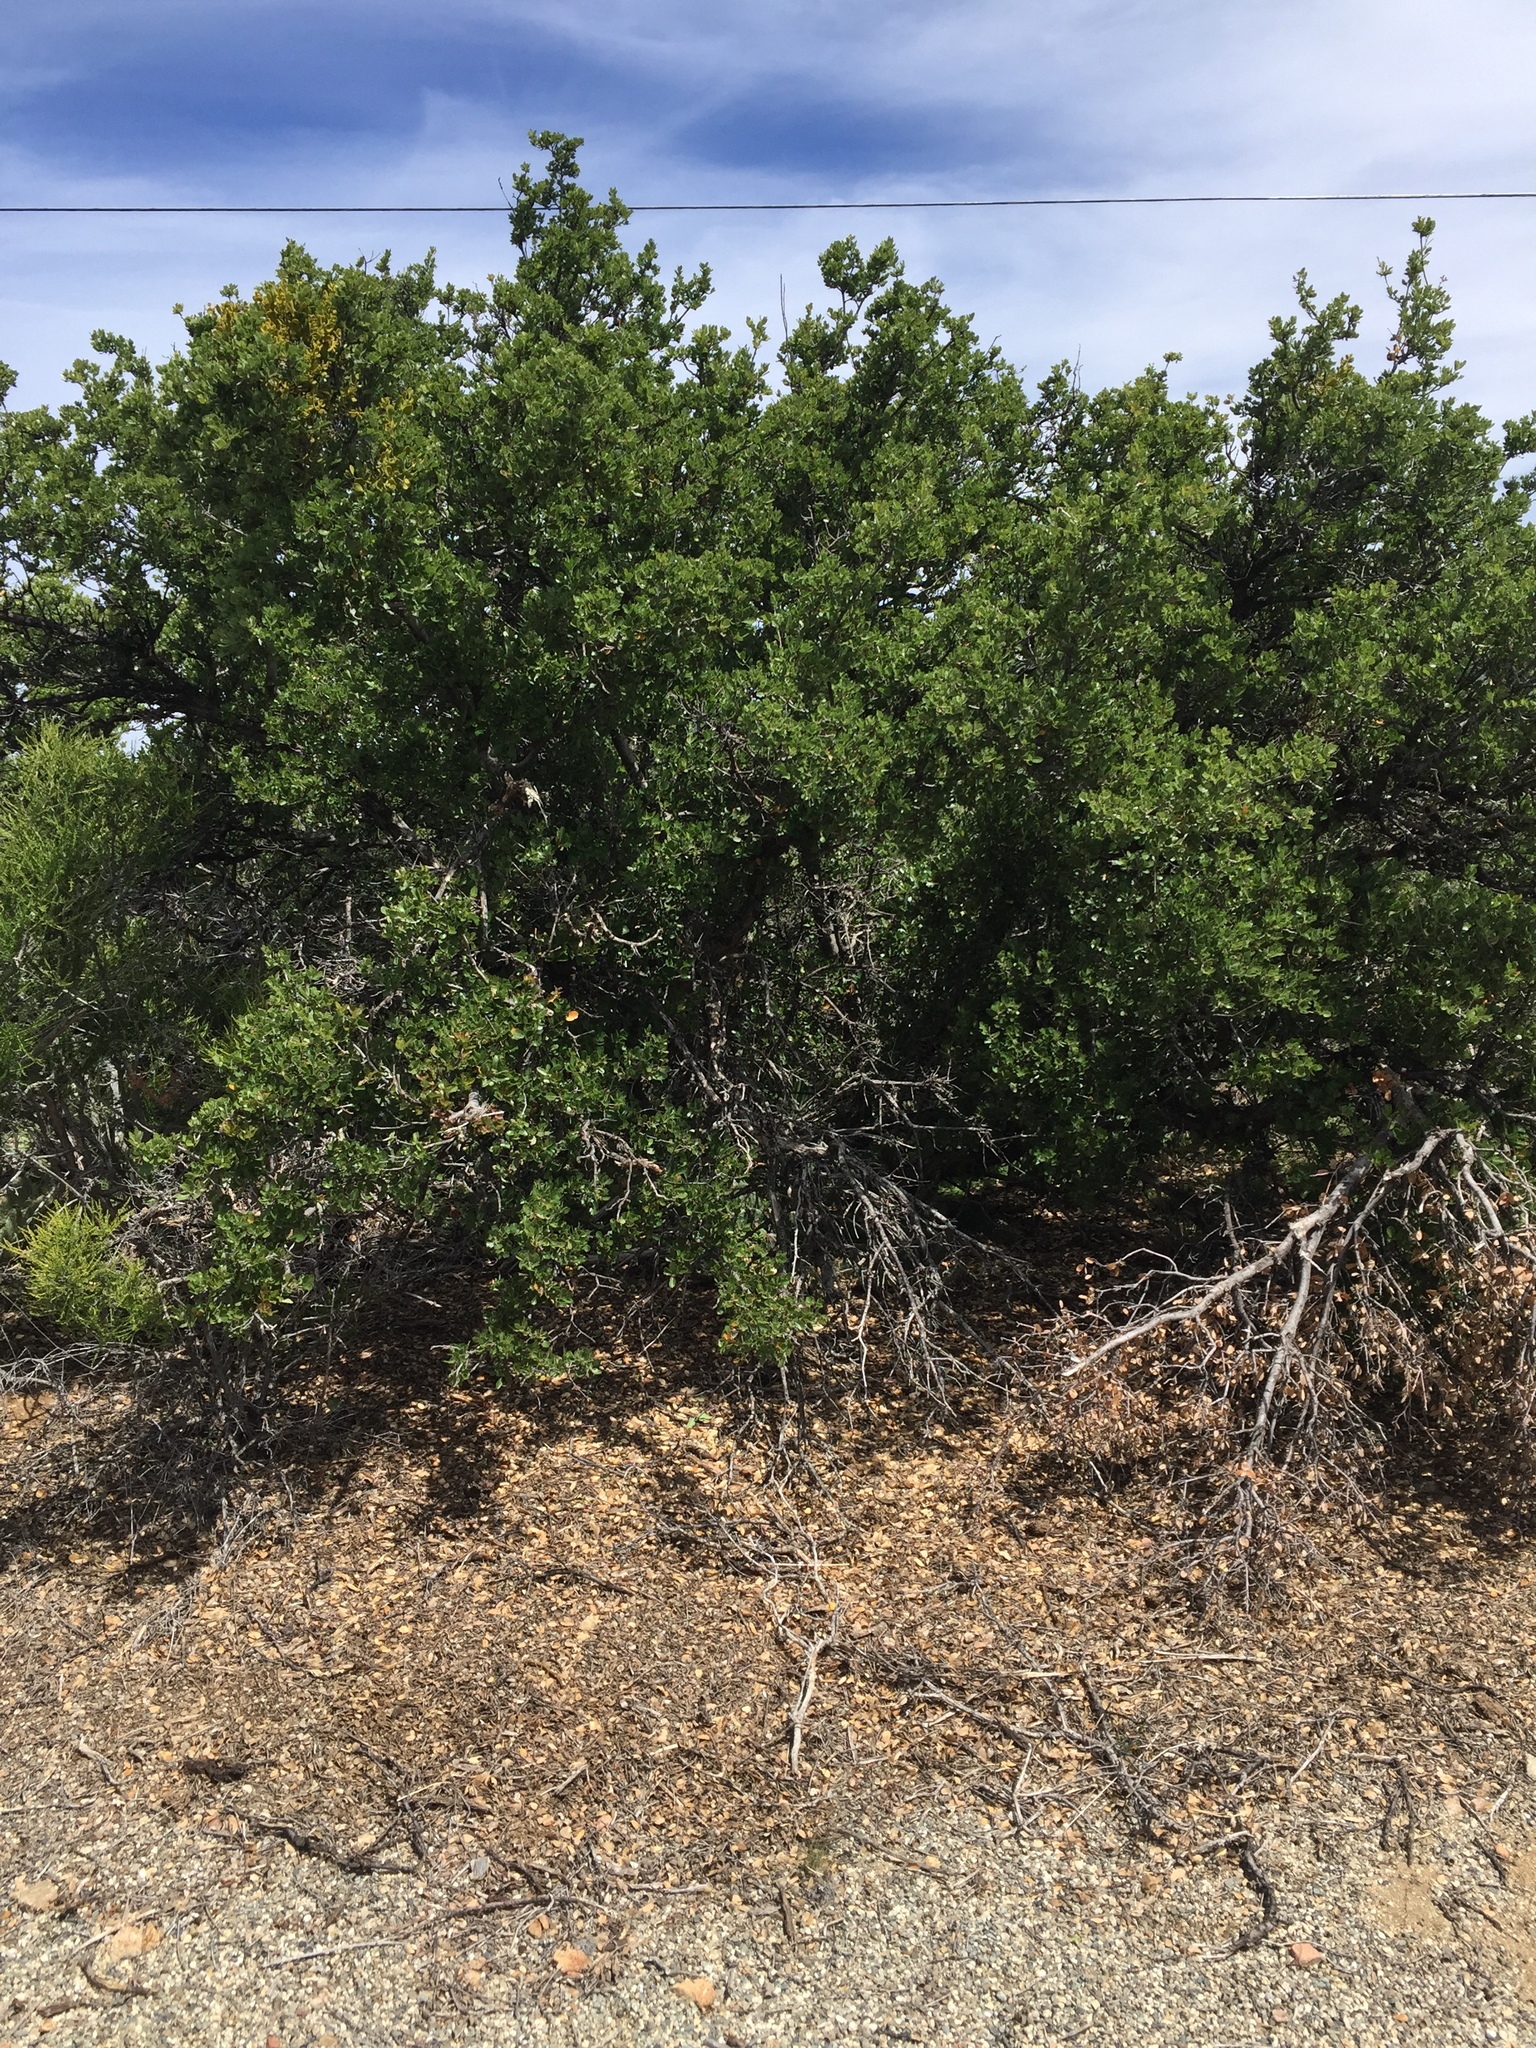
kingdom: Plantae
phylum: Tracheophyta
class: Magnoliopsida
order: Fagales
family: Fagaceae
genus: Quercus
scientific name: Quercus acutidens
